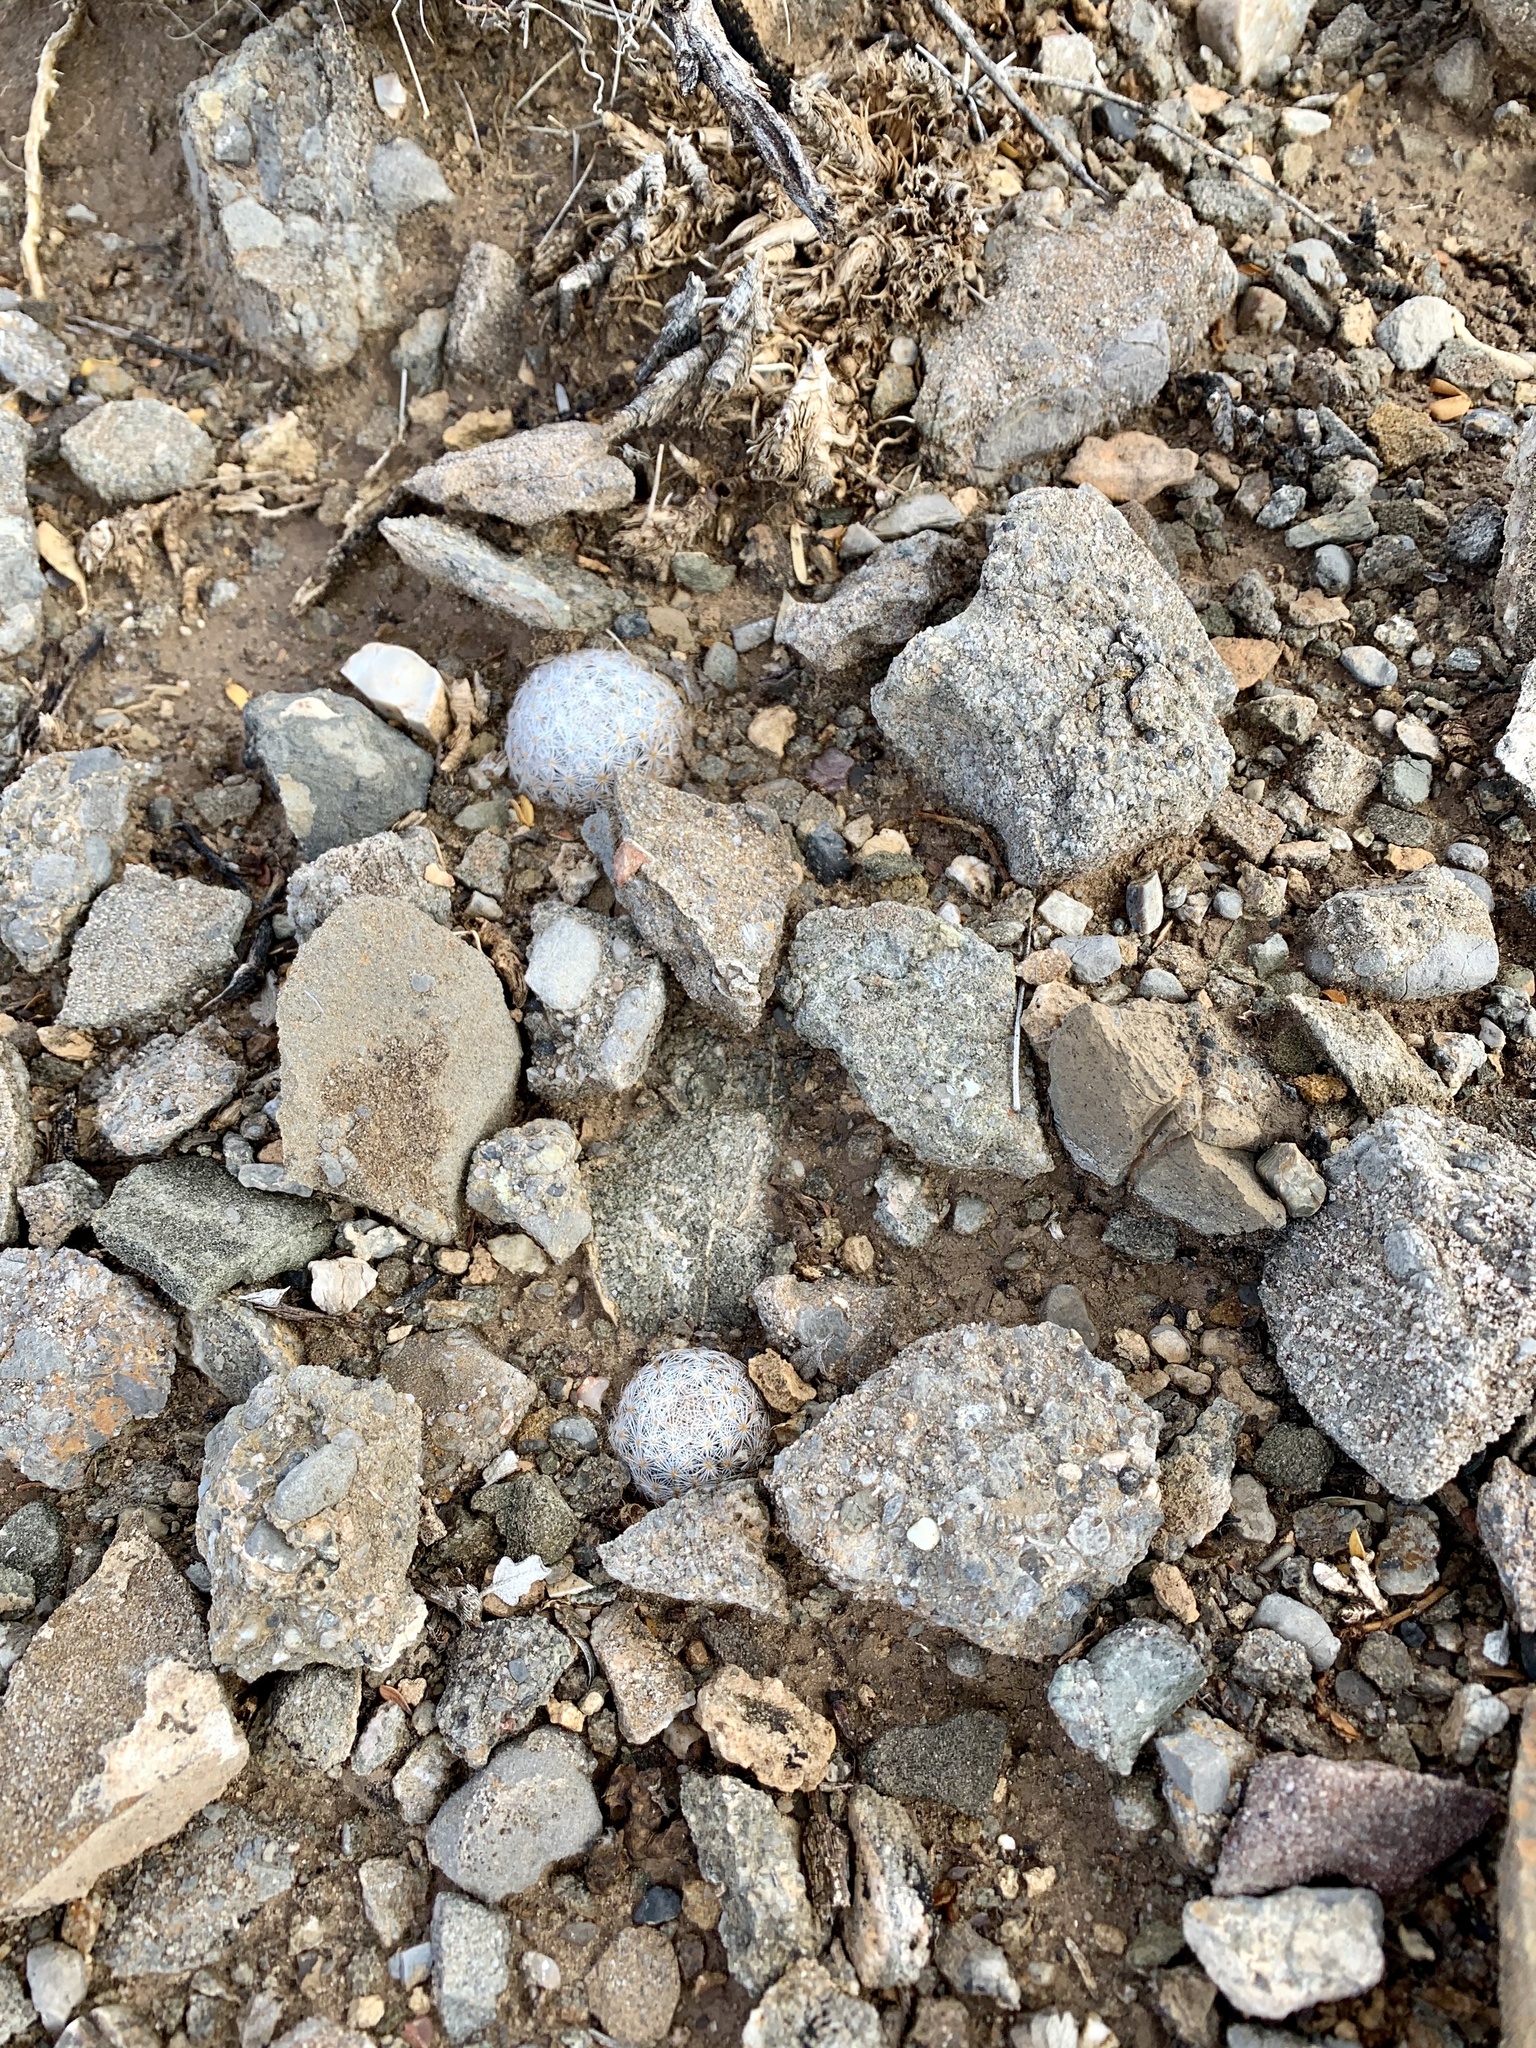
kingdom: Plantae
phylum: Tracheophyta
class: Magnoliopsida
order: Caryophyllales
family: Cactaceae
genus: Mammillaria
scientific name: Mammillaria lasiacantha
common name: Lace-spine nipple cactus
